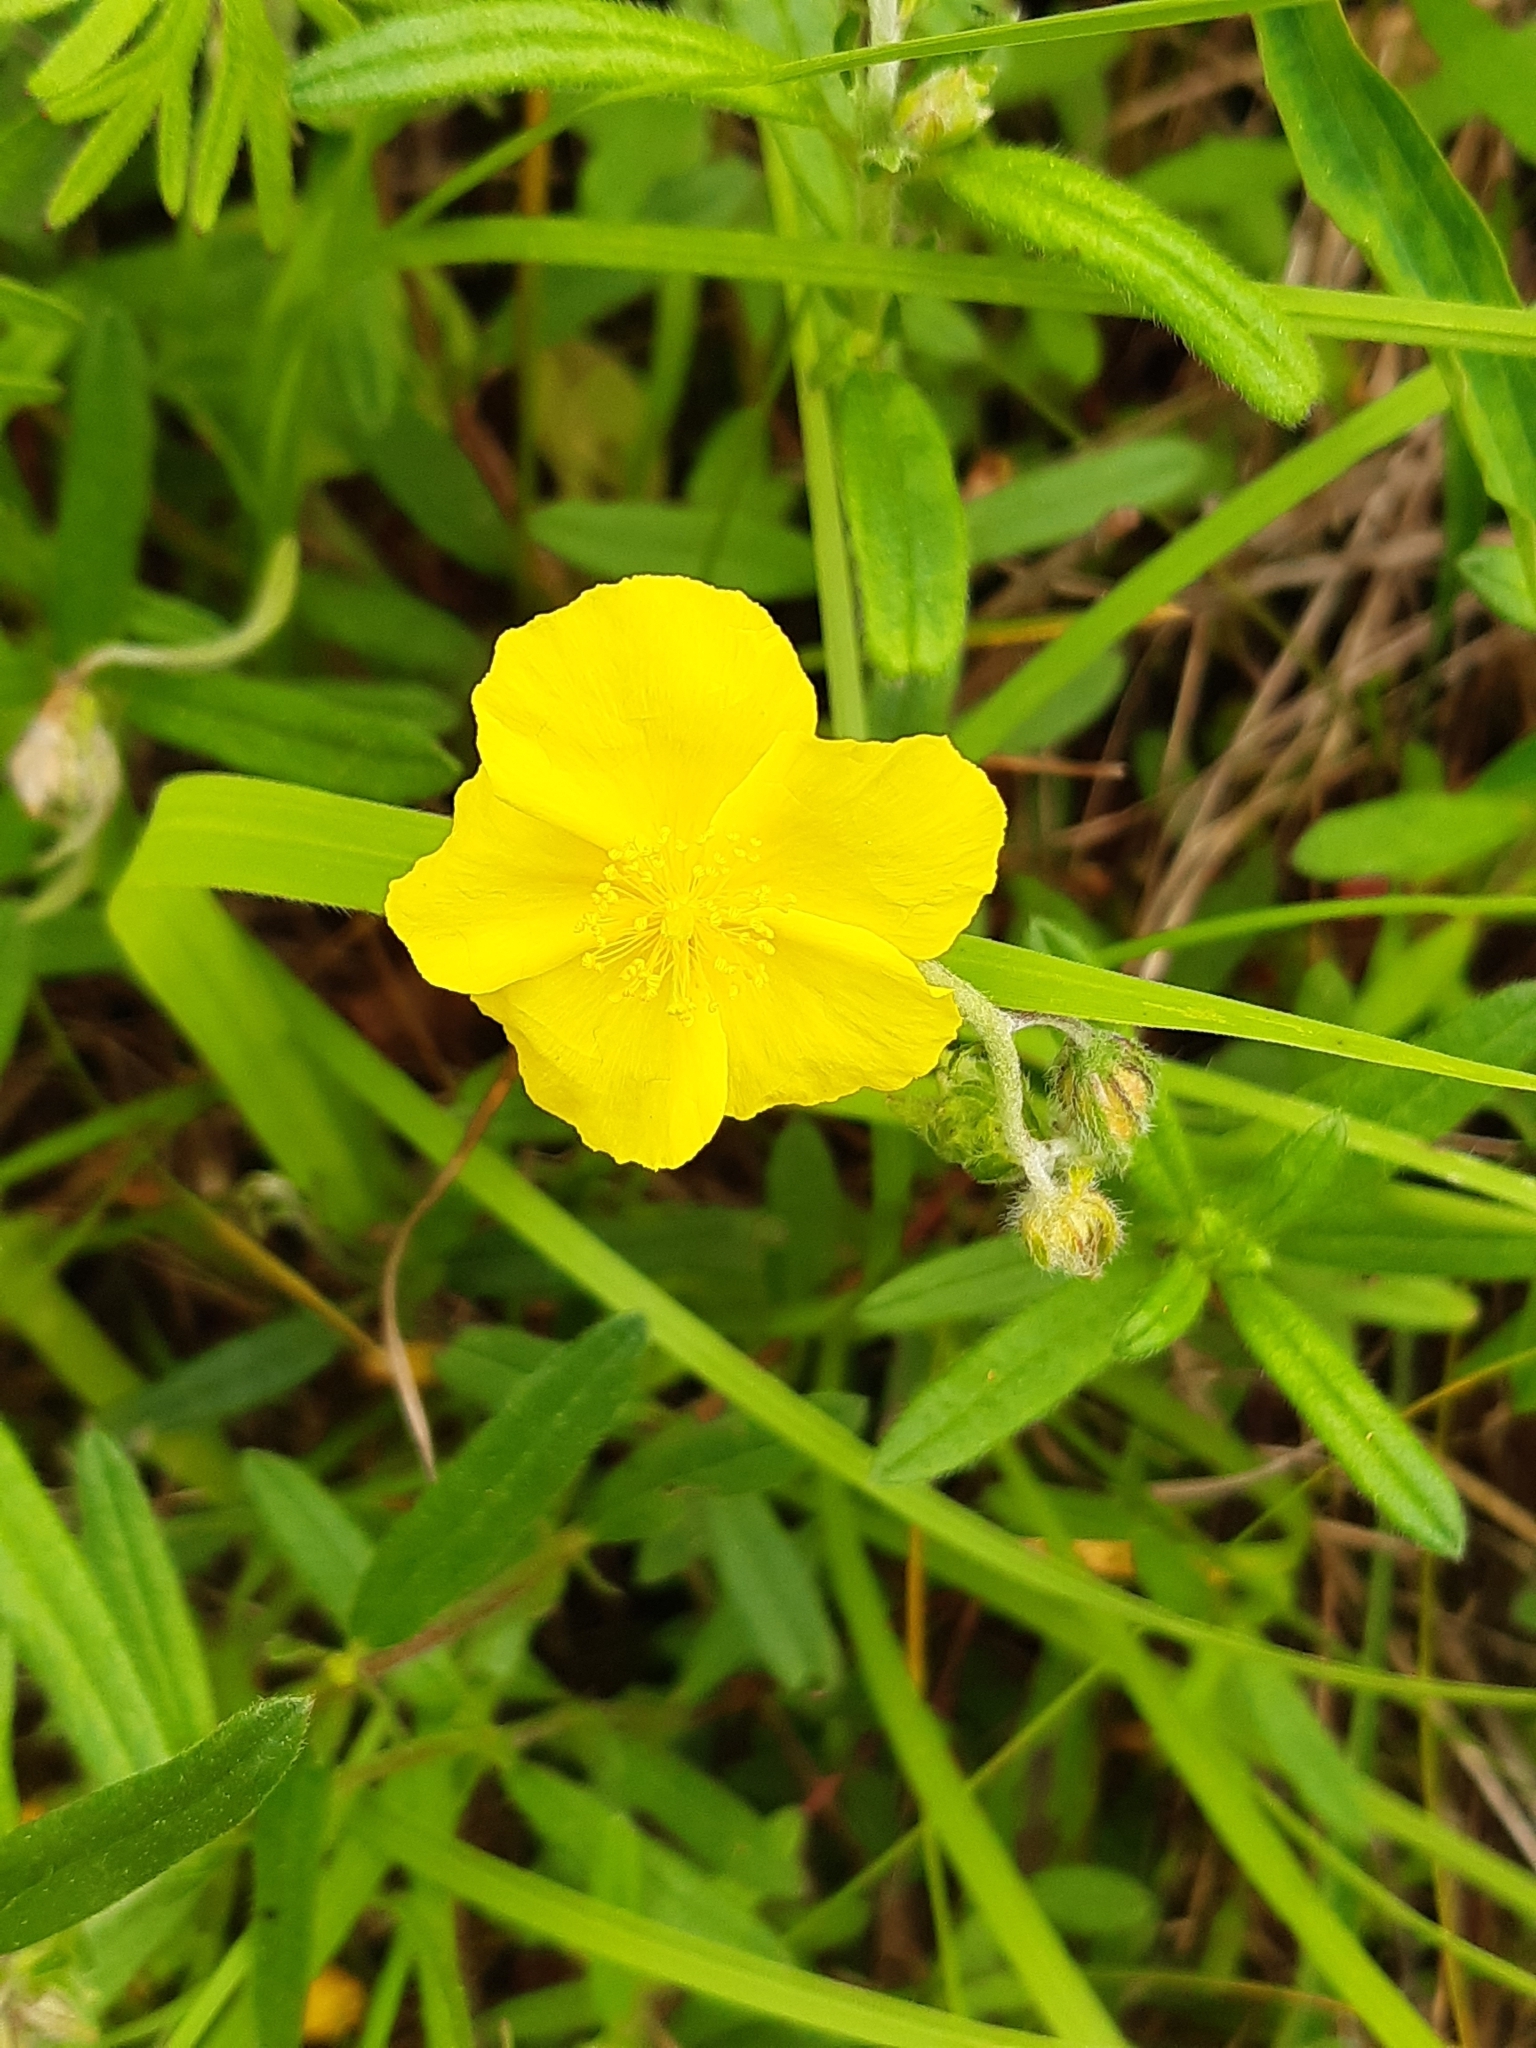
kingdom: Plantae
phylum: Tracheophyta
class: Magnoliopsida
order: Malvales
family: Cistaceae
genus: Helianthemum
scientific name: Helianthemum nummularium
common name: Common rock-rose
